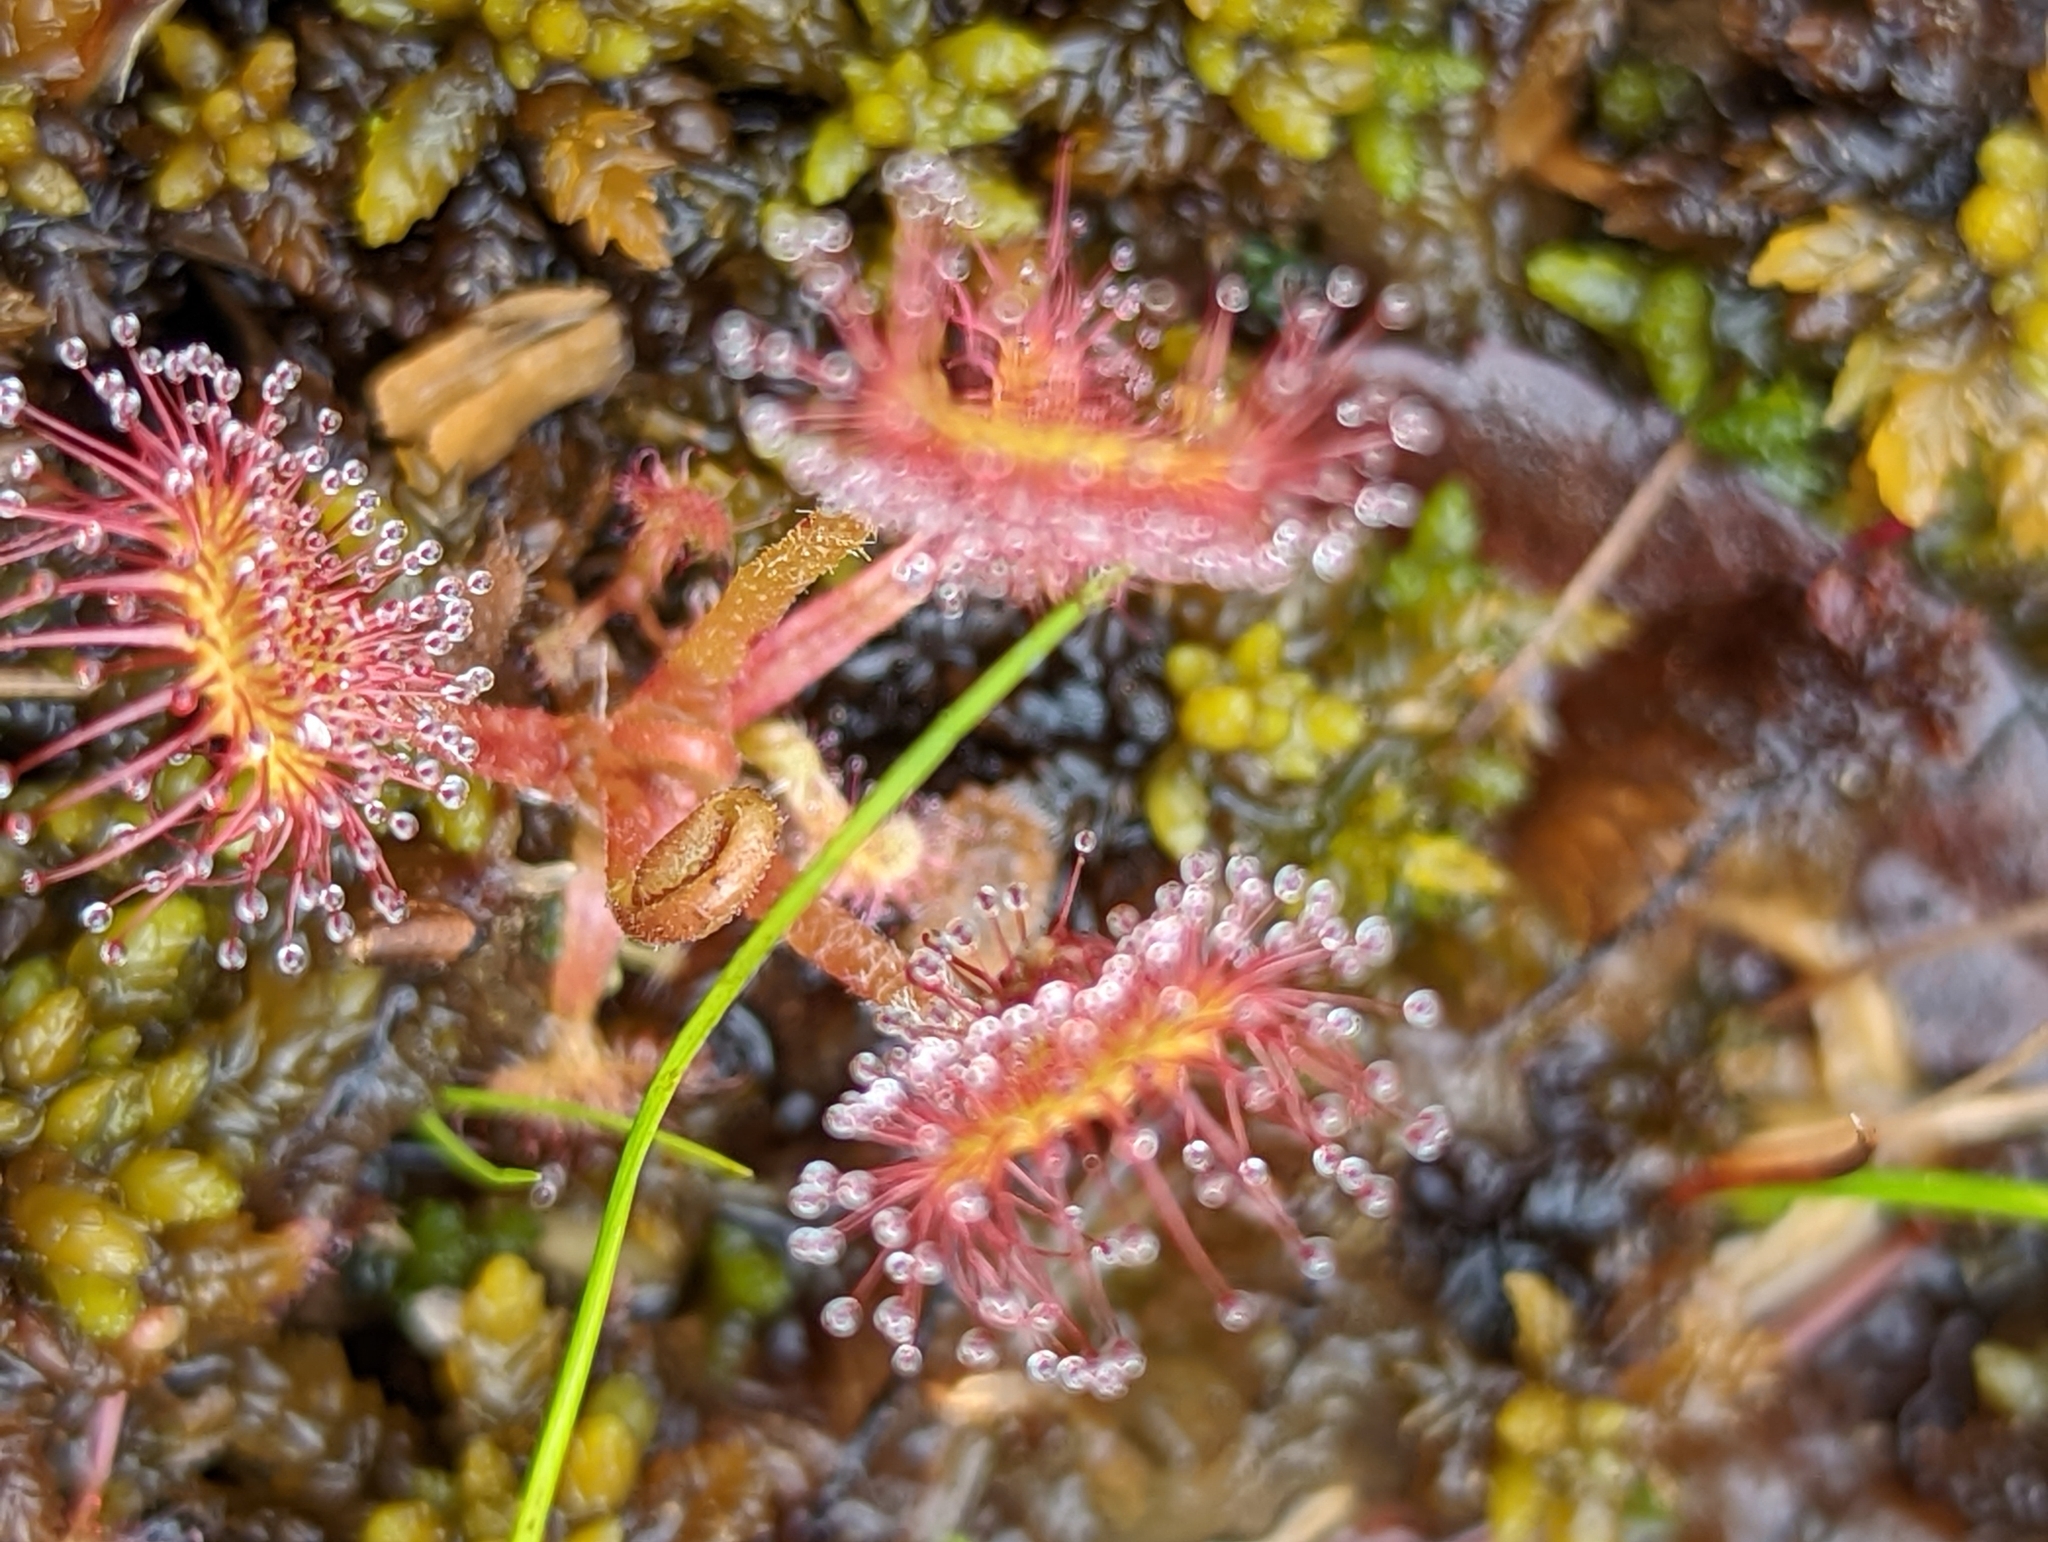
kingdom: Plantae
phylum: Tracheophyta
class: Magnoliopsida
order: Caryophyllales
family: Droseraceae
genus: Drosera
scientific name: Drosera rotundifolia
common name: Round-leaved sundew
